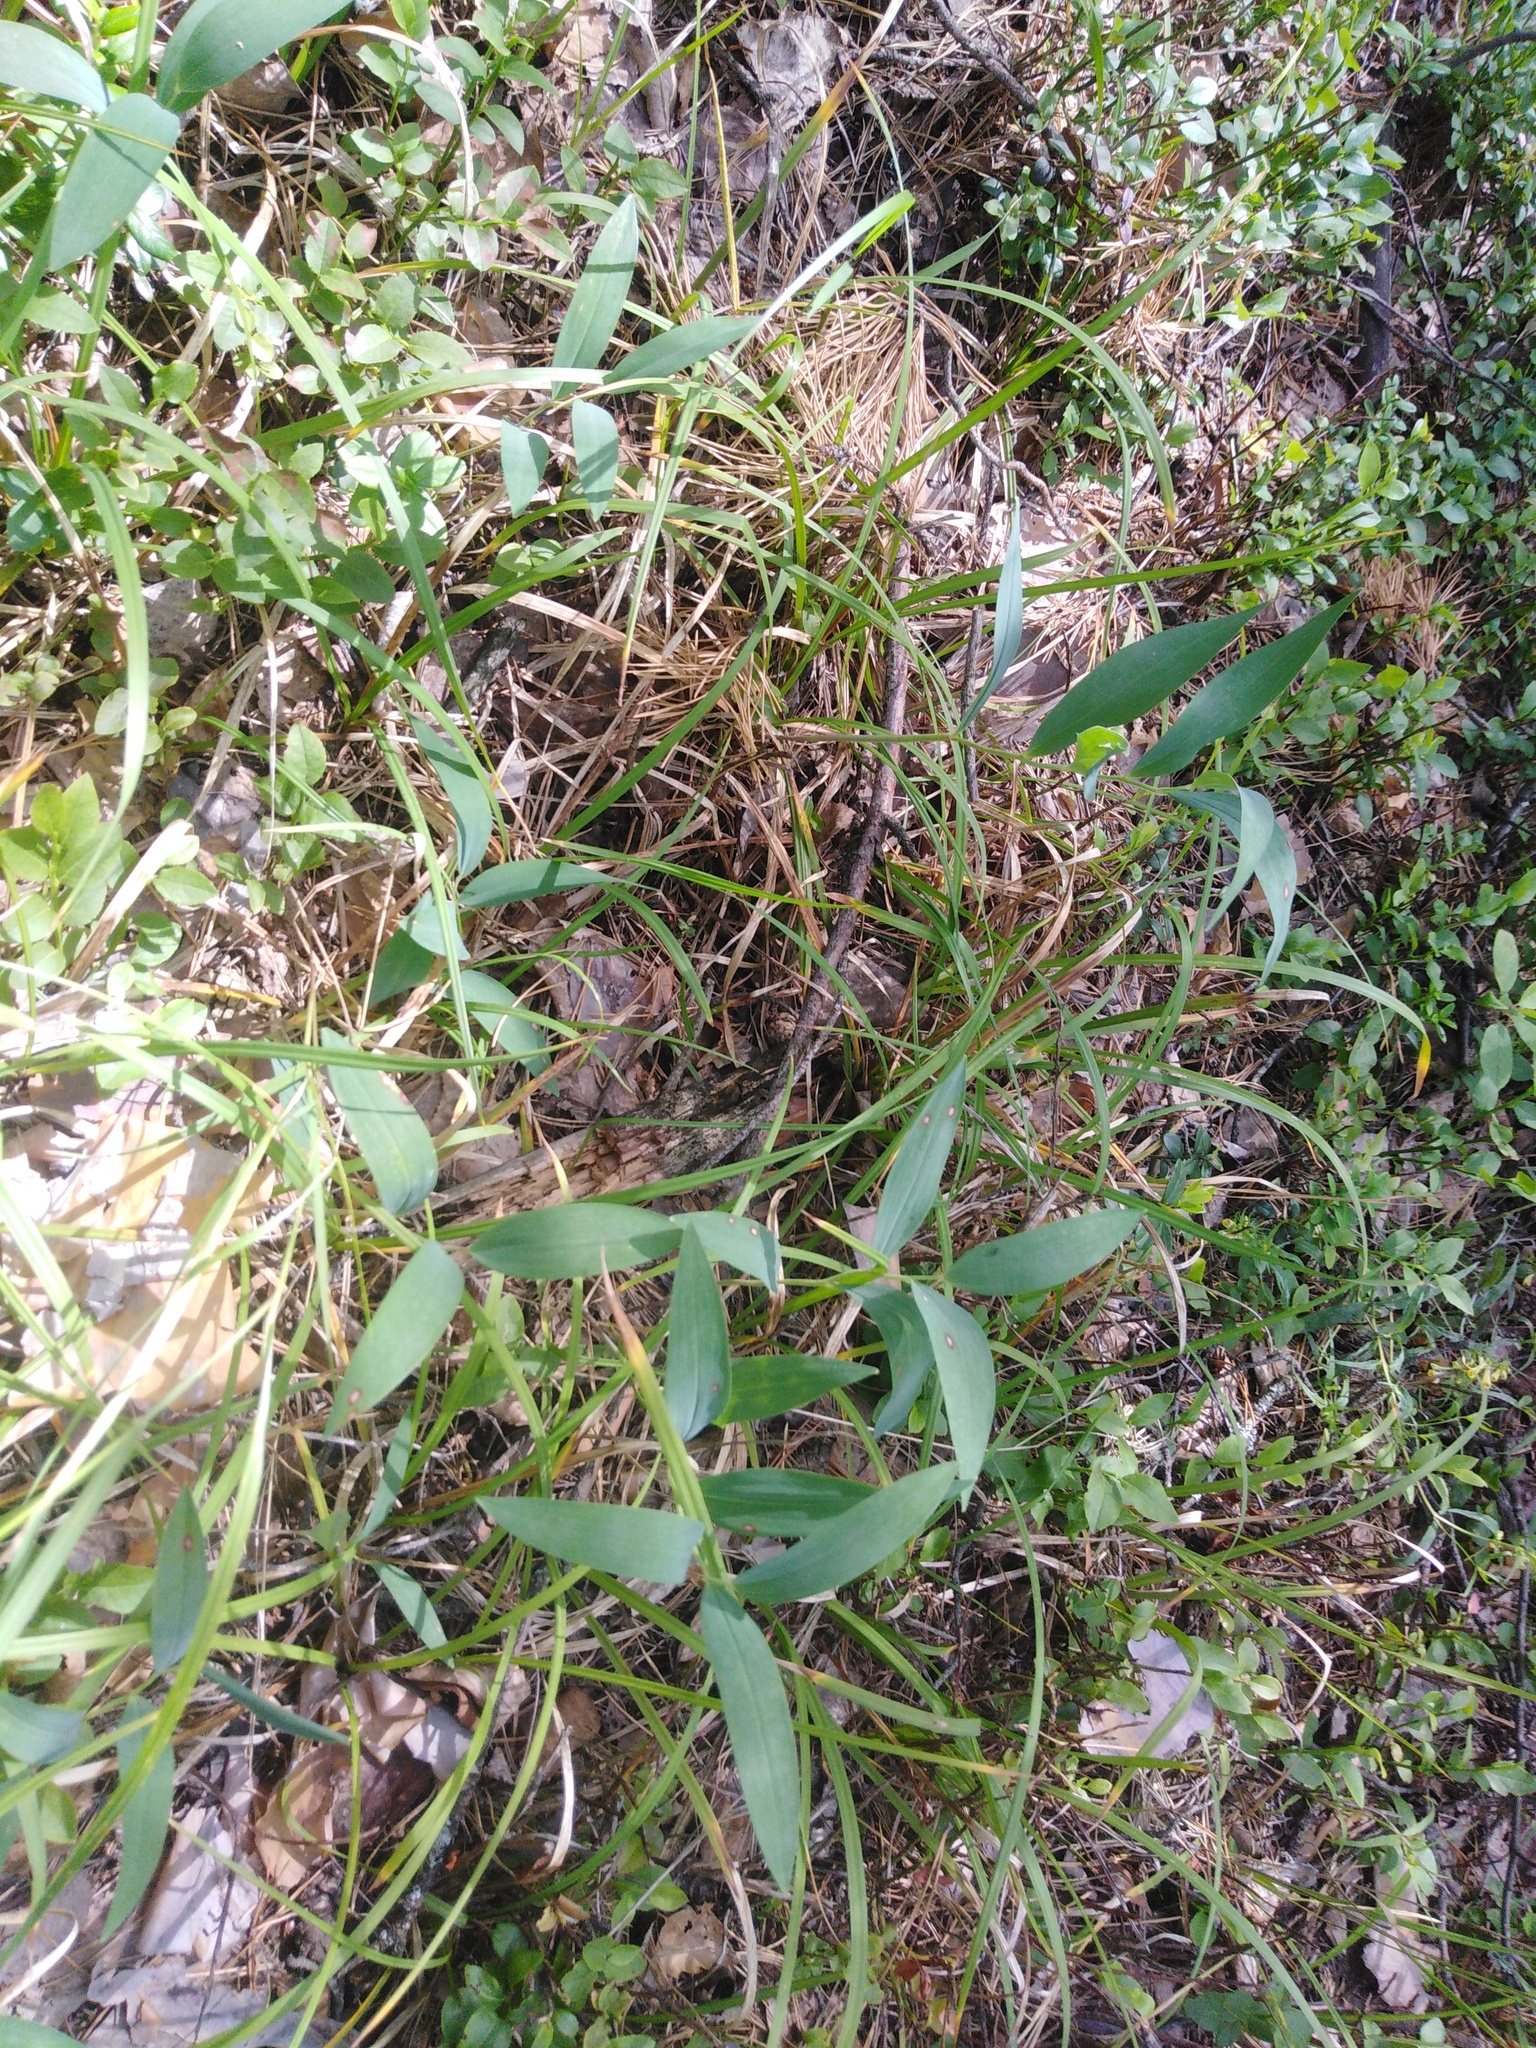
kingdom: Plantae
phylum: Tracheophyta
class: Liliopsida
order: Asparagales
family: Asparagaceae
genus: Polygonatum
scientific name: Polygonatum odoratum
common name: Angular solomon's-seal
